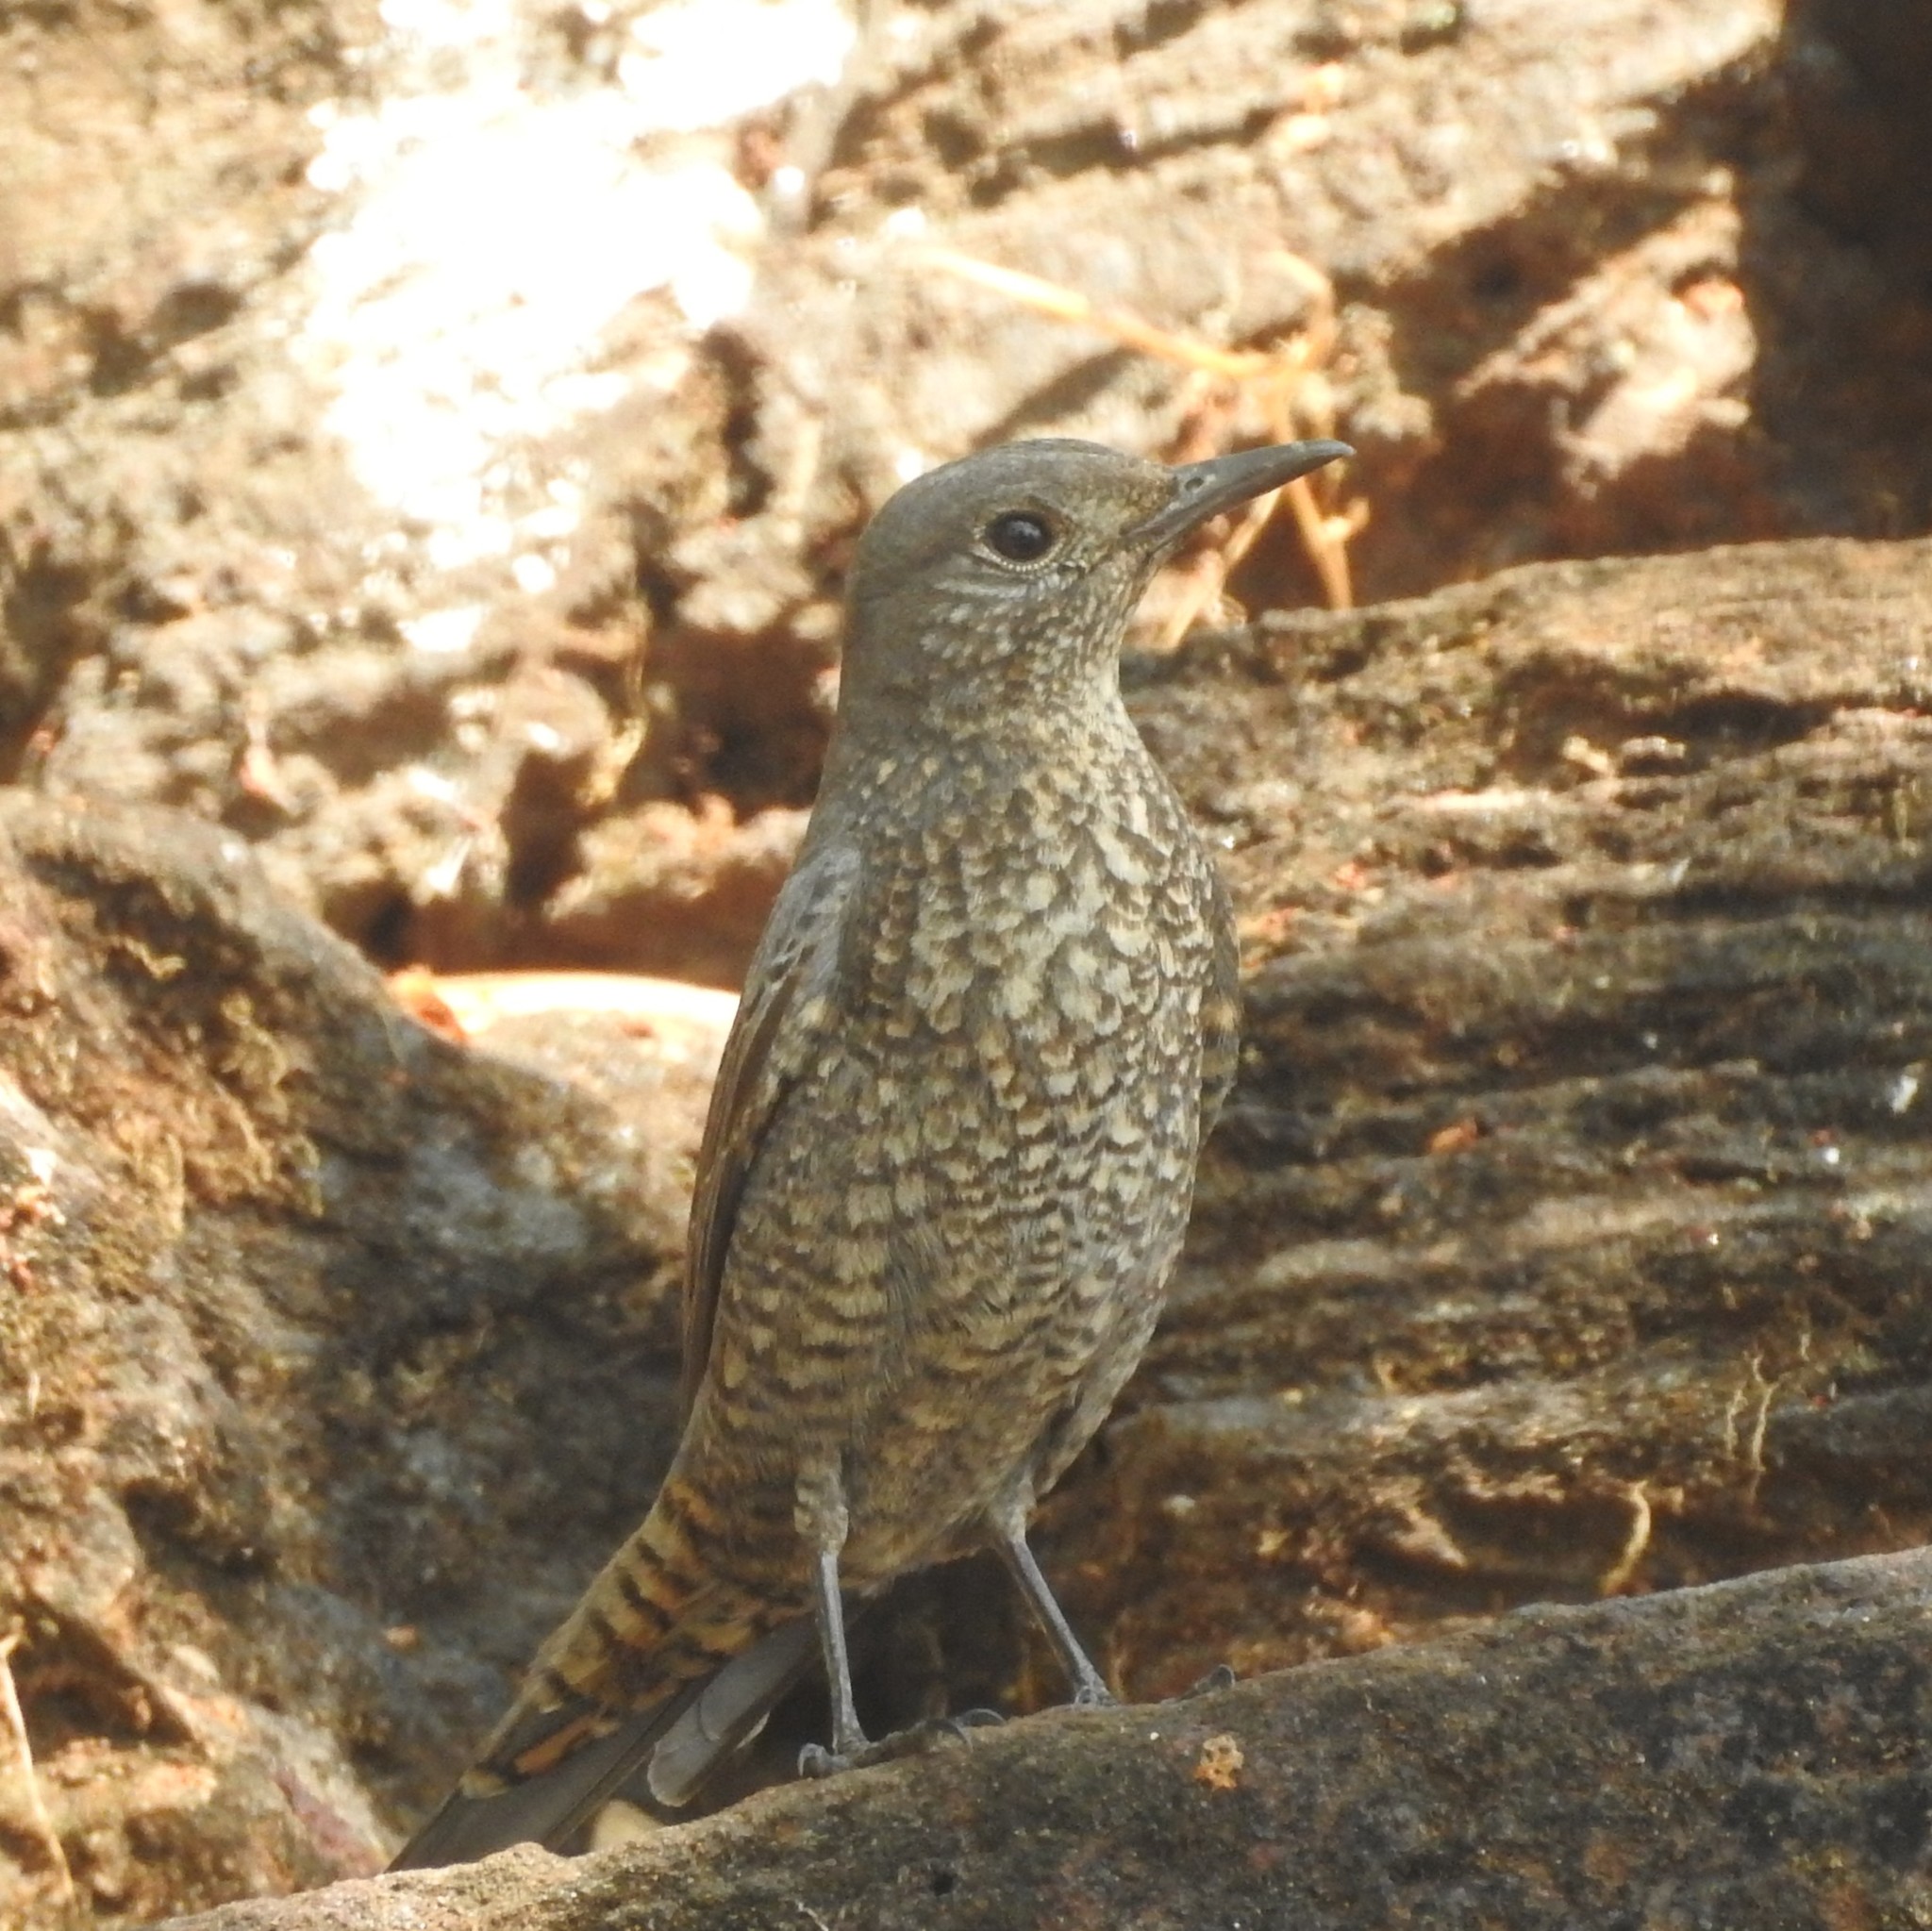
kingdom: Animalia
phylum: Chordata
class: Aves
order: Passeriformes
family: Muscicapidae
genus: Monticola
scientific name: Monticola solitarius
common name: Blue rock thrush
